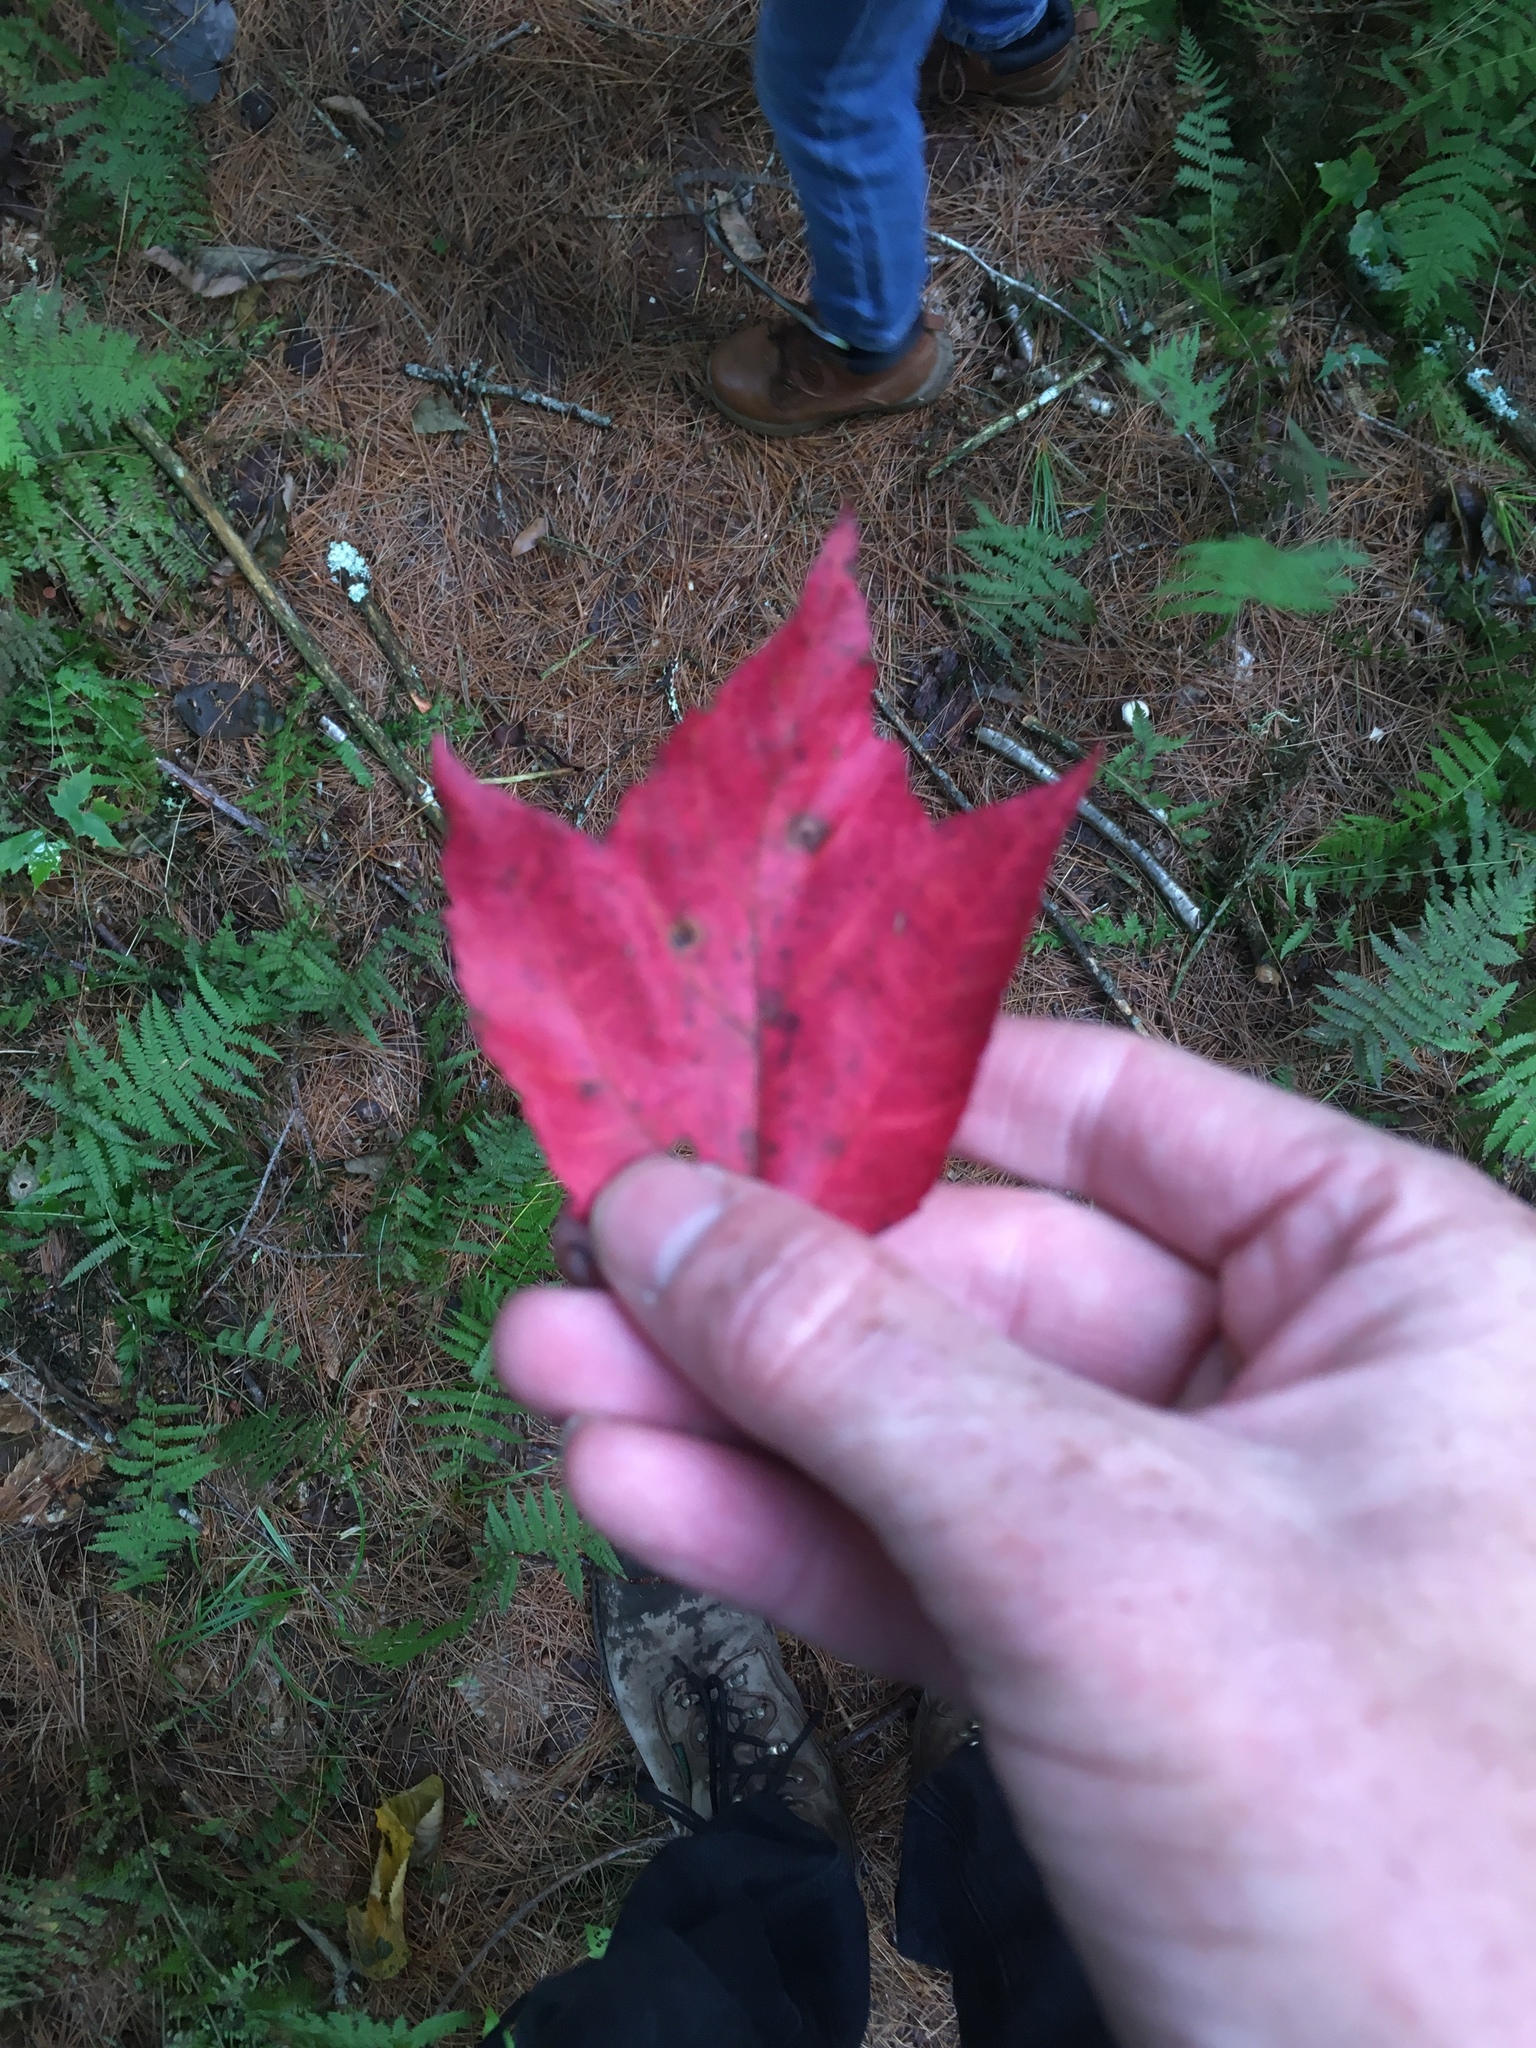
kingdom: Plantae
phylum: Tracheophyta
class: Magnoliopsida
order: Sapindales
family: Sapindaceae
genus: Acer
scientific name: Acer rubrum
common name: Red maple
